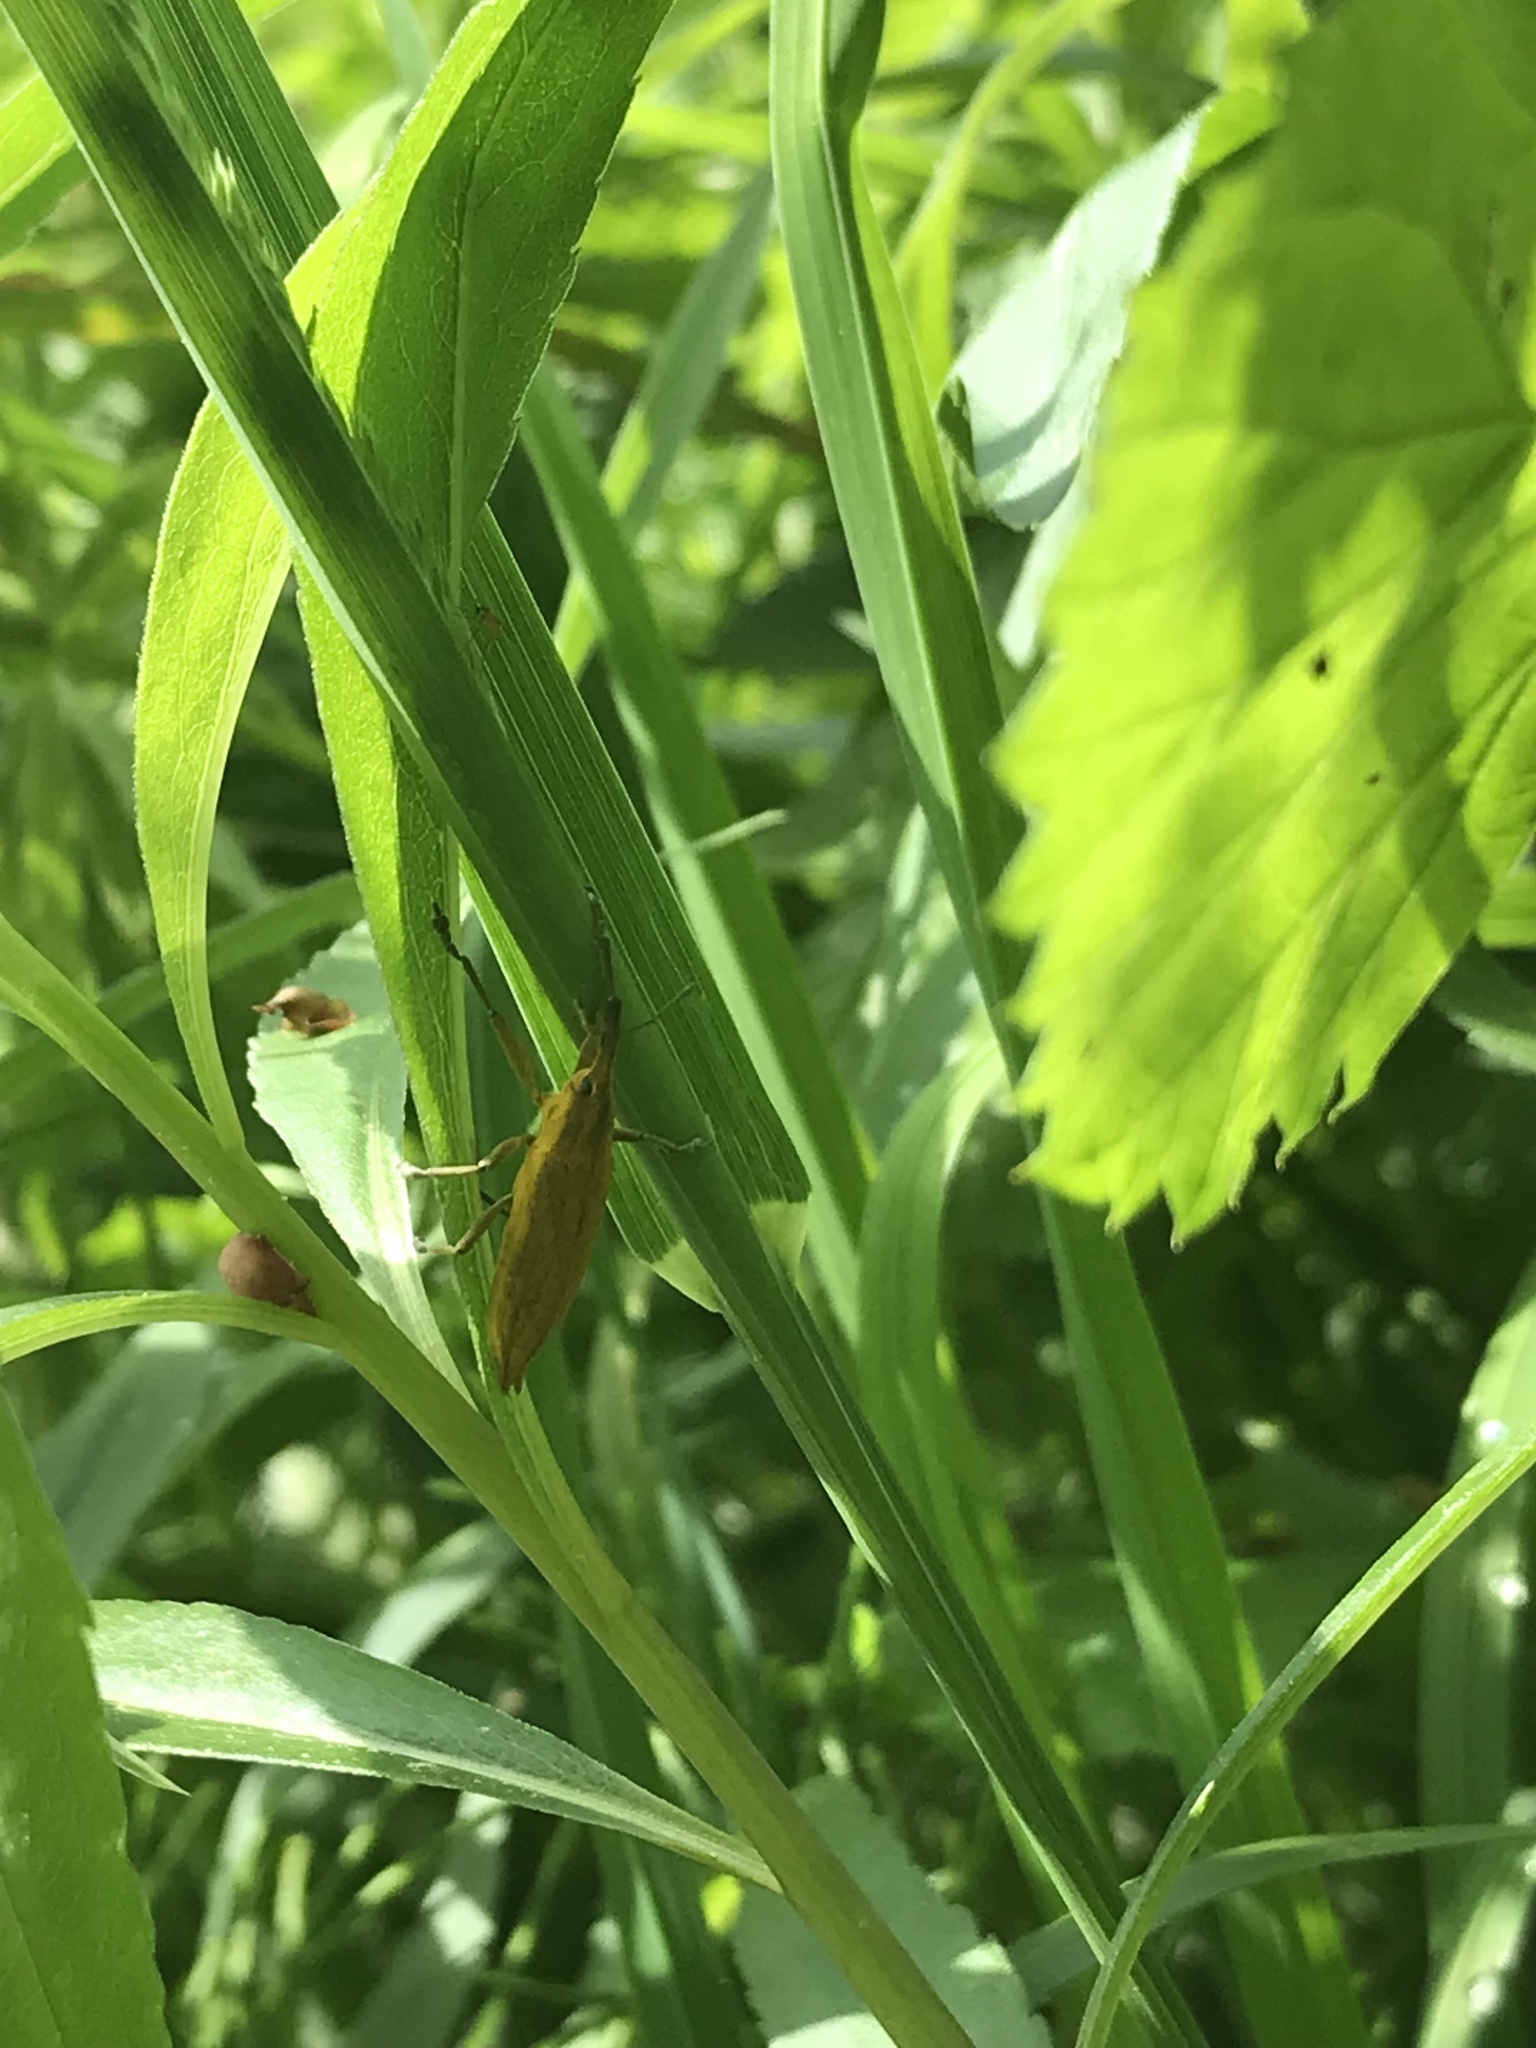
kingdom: Animalia
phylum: Arthropoda
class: Insecta
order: Coleoptera
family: Curculionidae
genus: Lixus
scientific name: Lixus iridis
